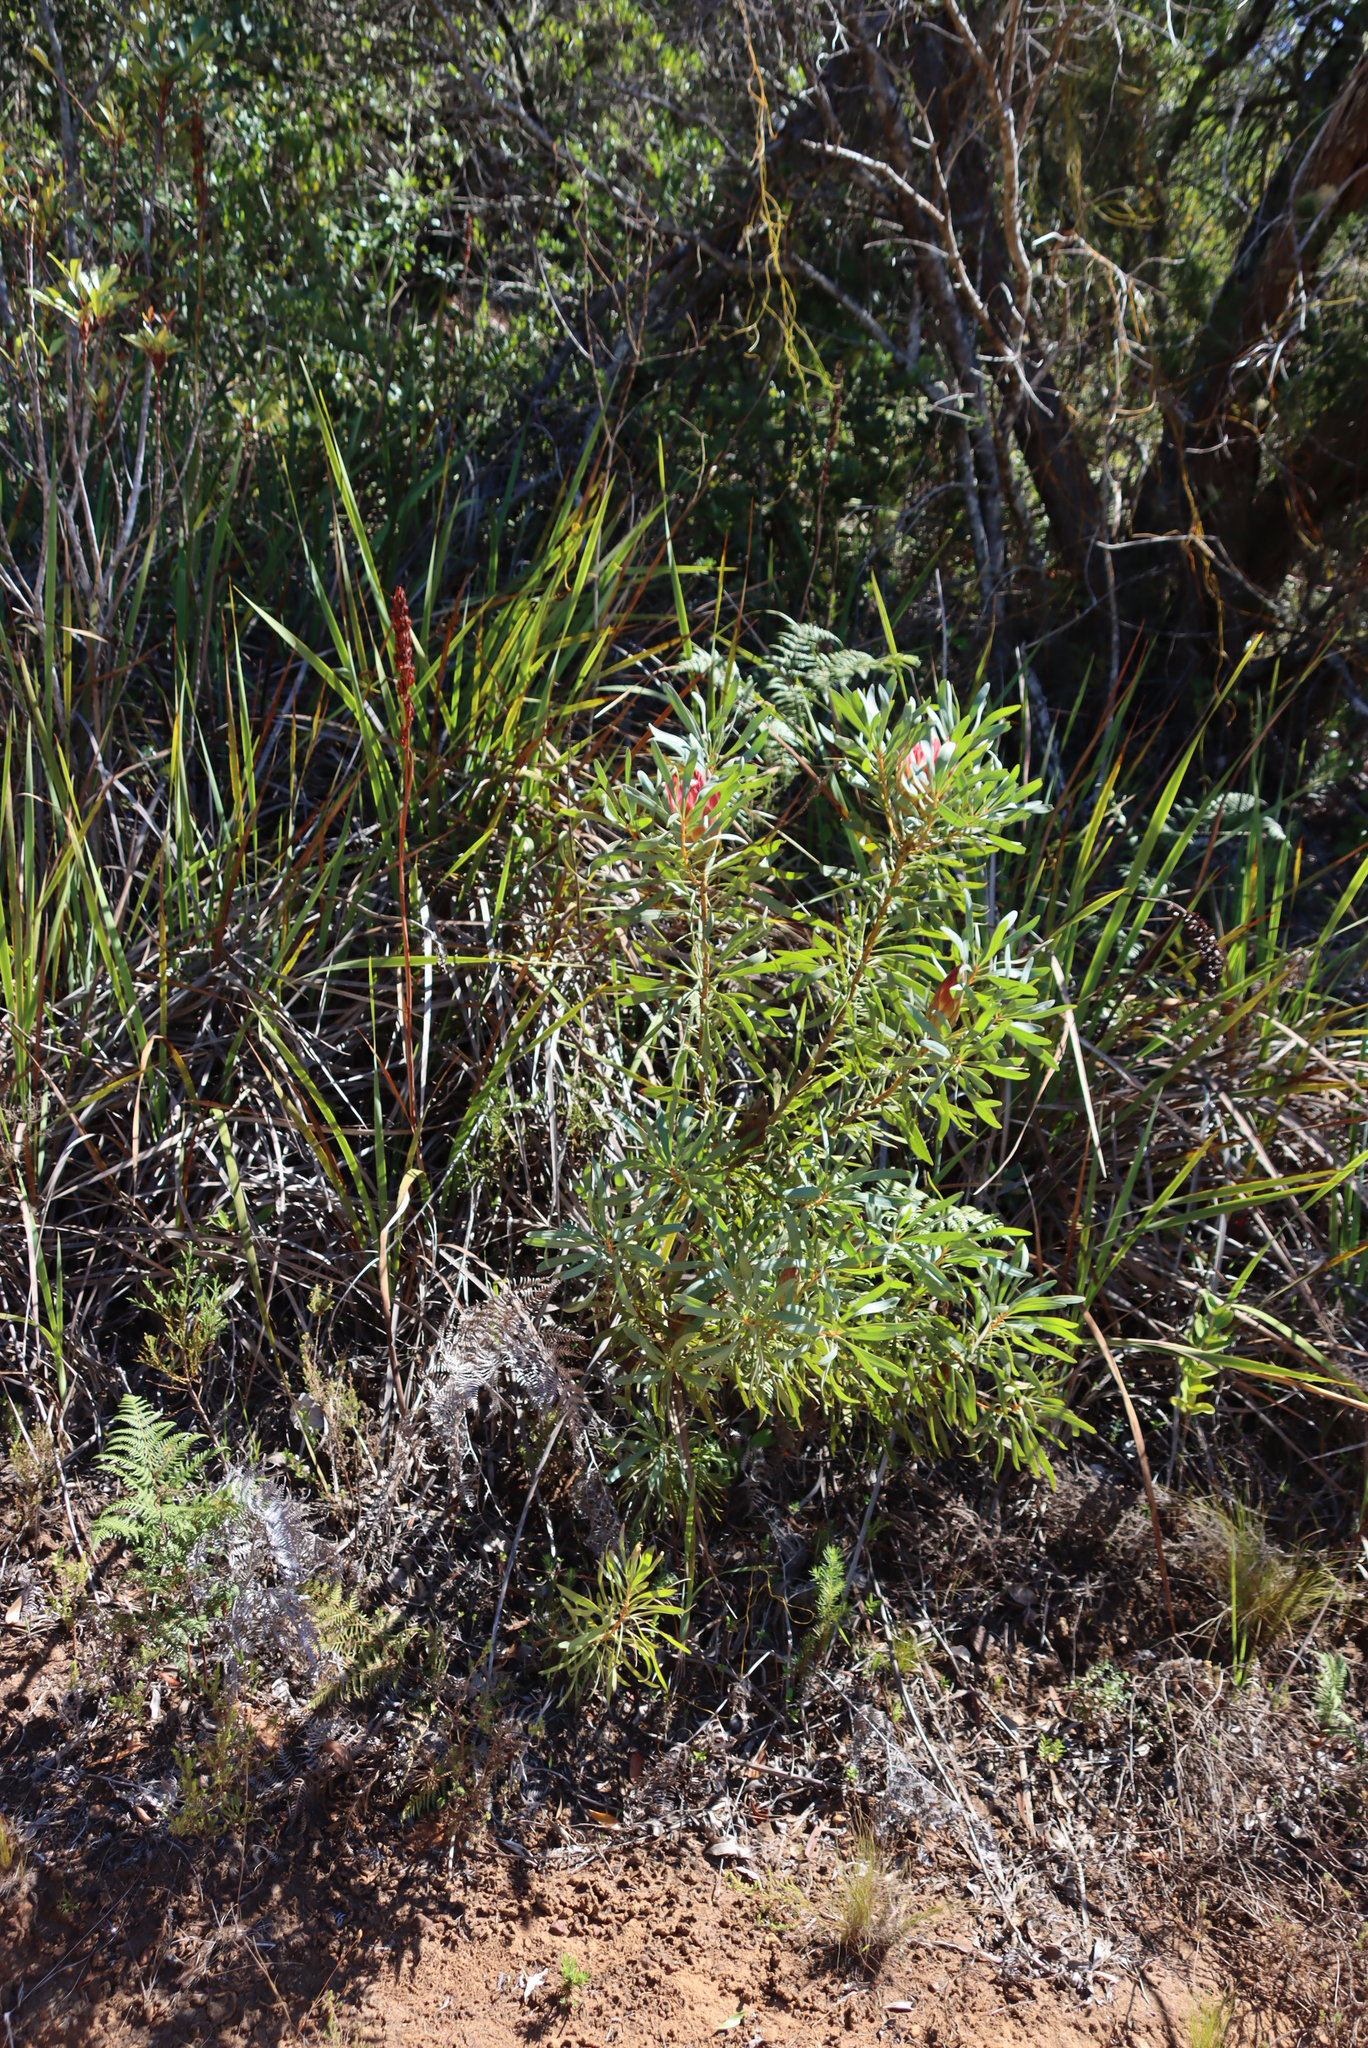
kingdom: Plantae
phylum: Tracheophyta
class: Magnoliopsida
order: Proteales
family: Proteaceae
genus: Protea
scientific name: Protea repens
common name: Sugarbush
